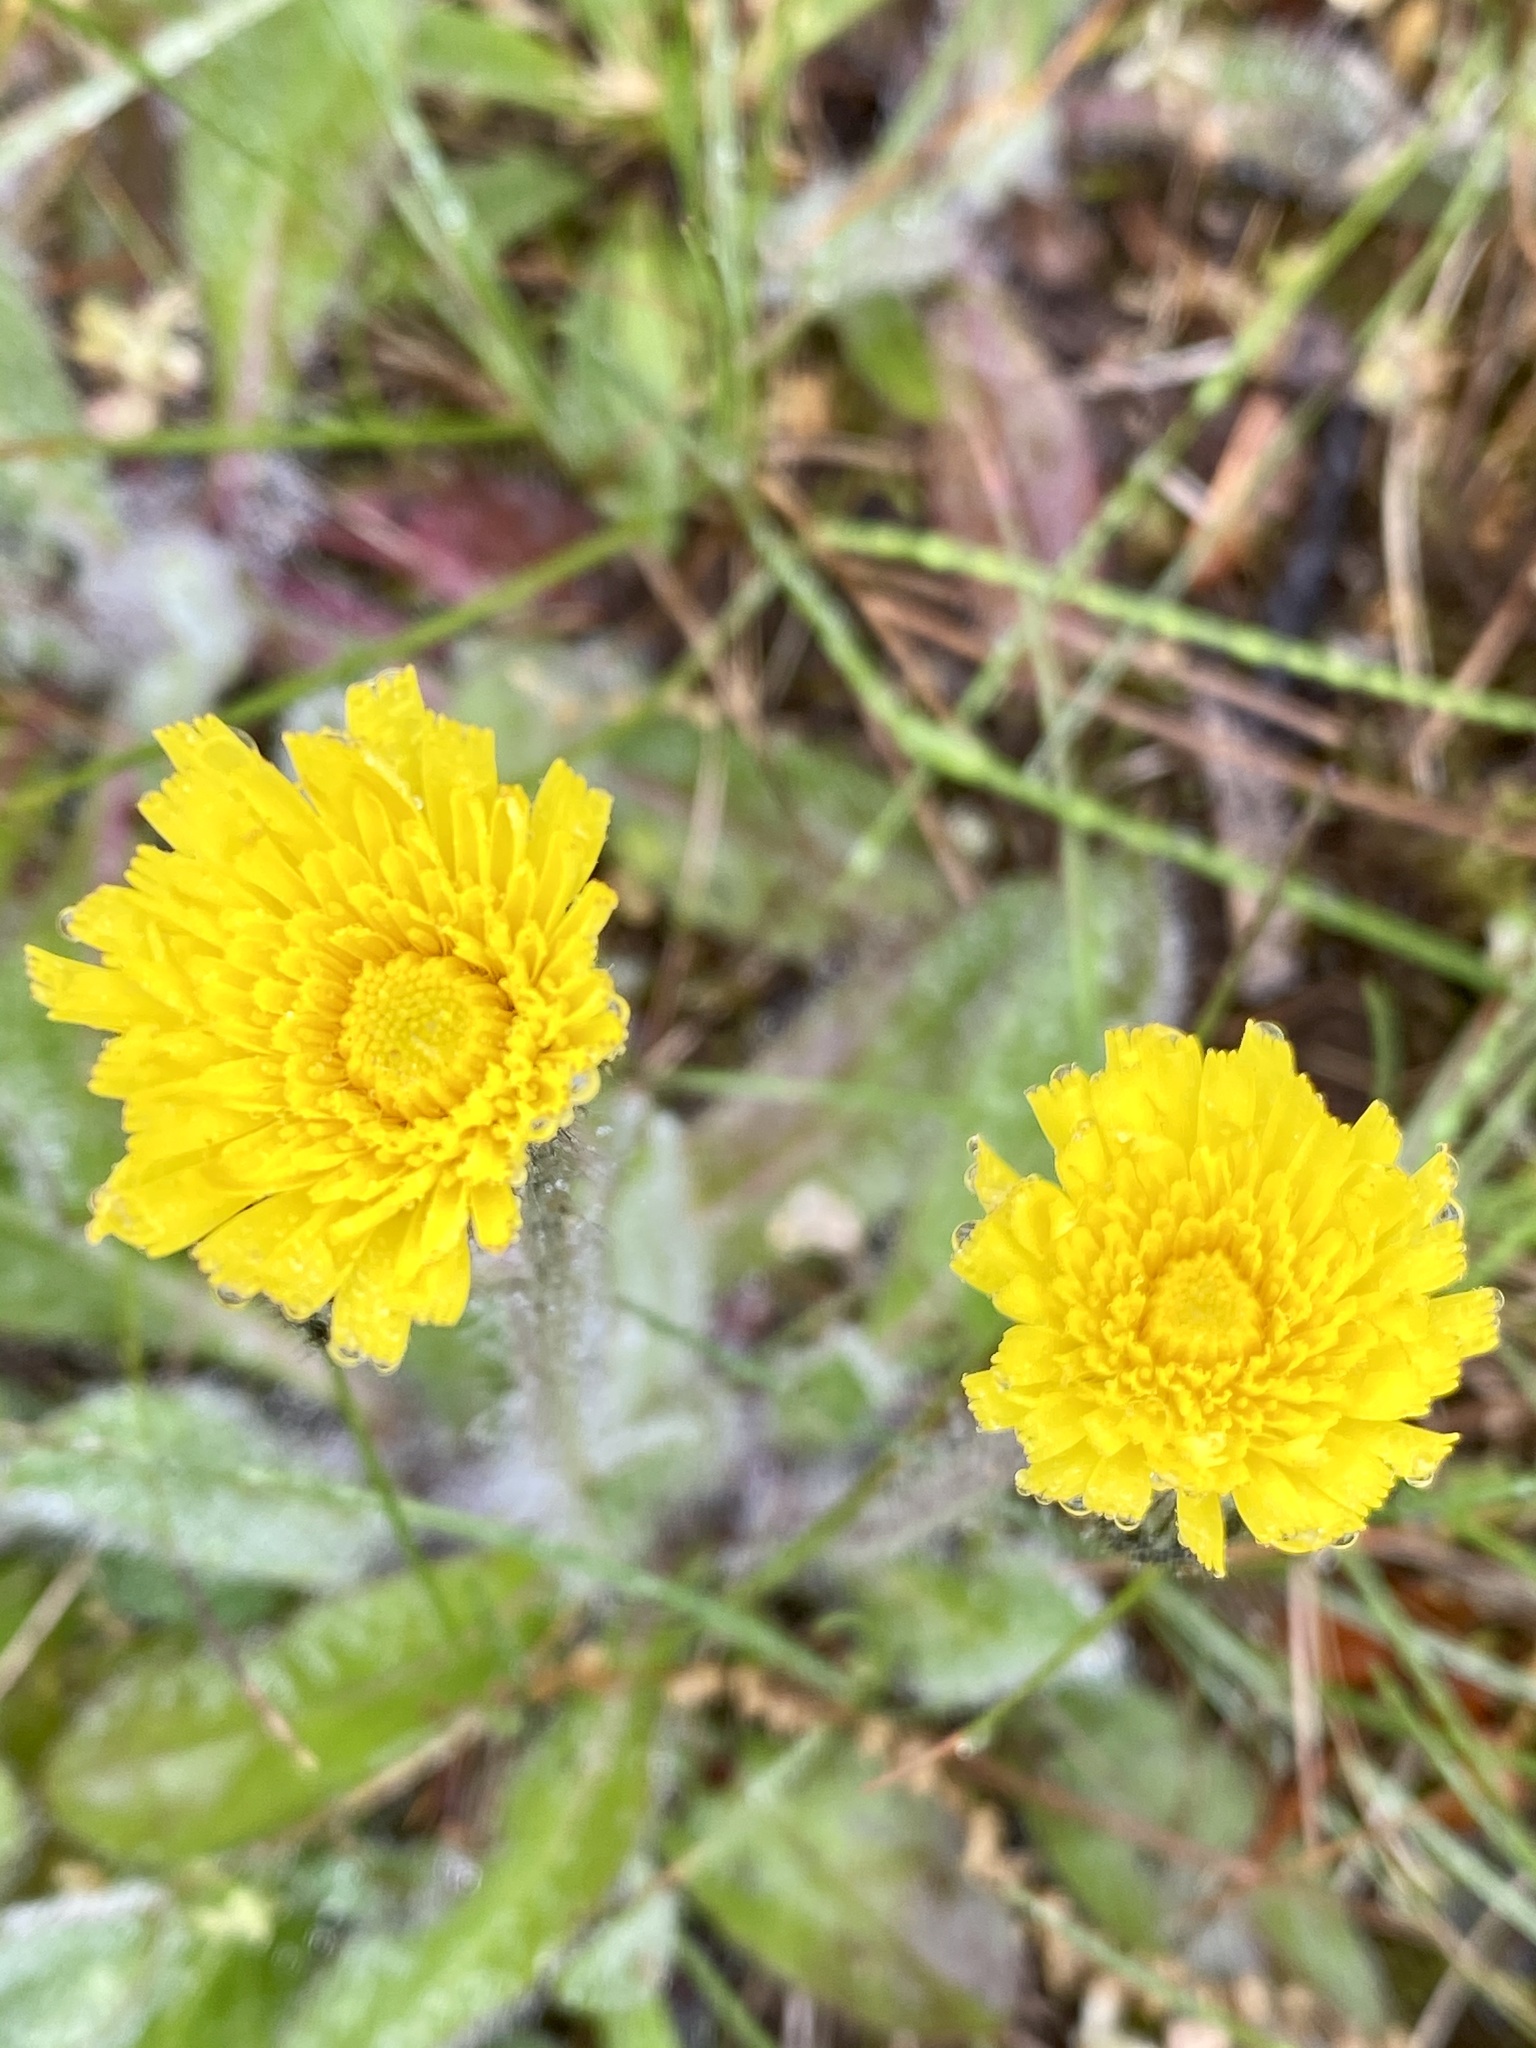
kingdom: Plantae
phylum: Tracheophyta
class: Magnoliopsida
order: Asterales
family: Asteraceae
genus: Pilosella
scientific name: Pilosella caespitosa
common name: Yellow fox-and-cubs
